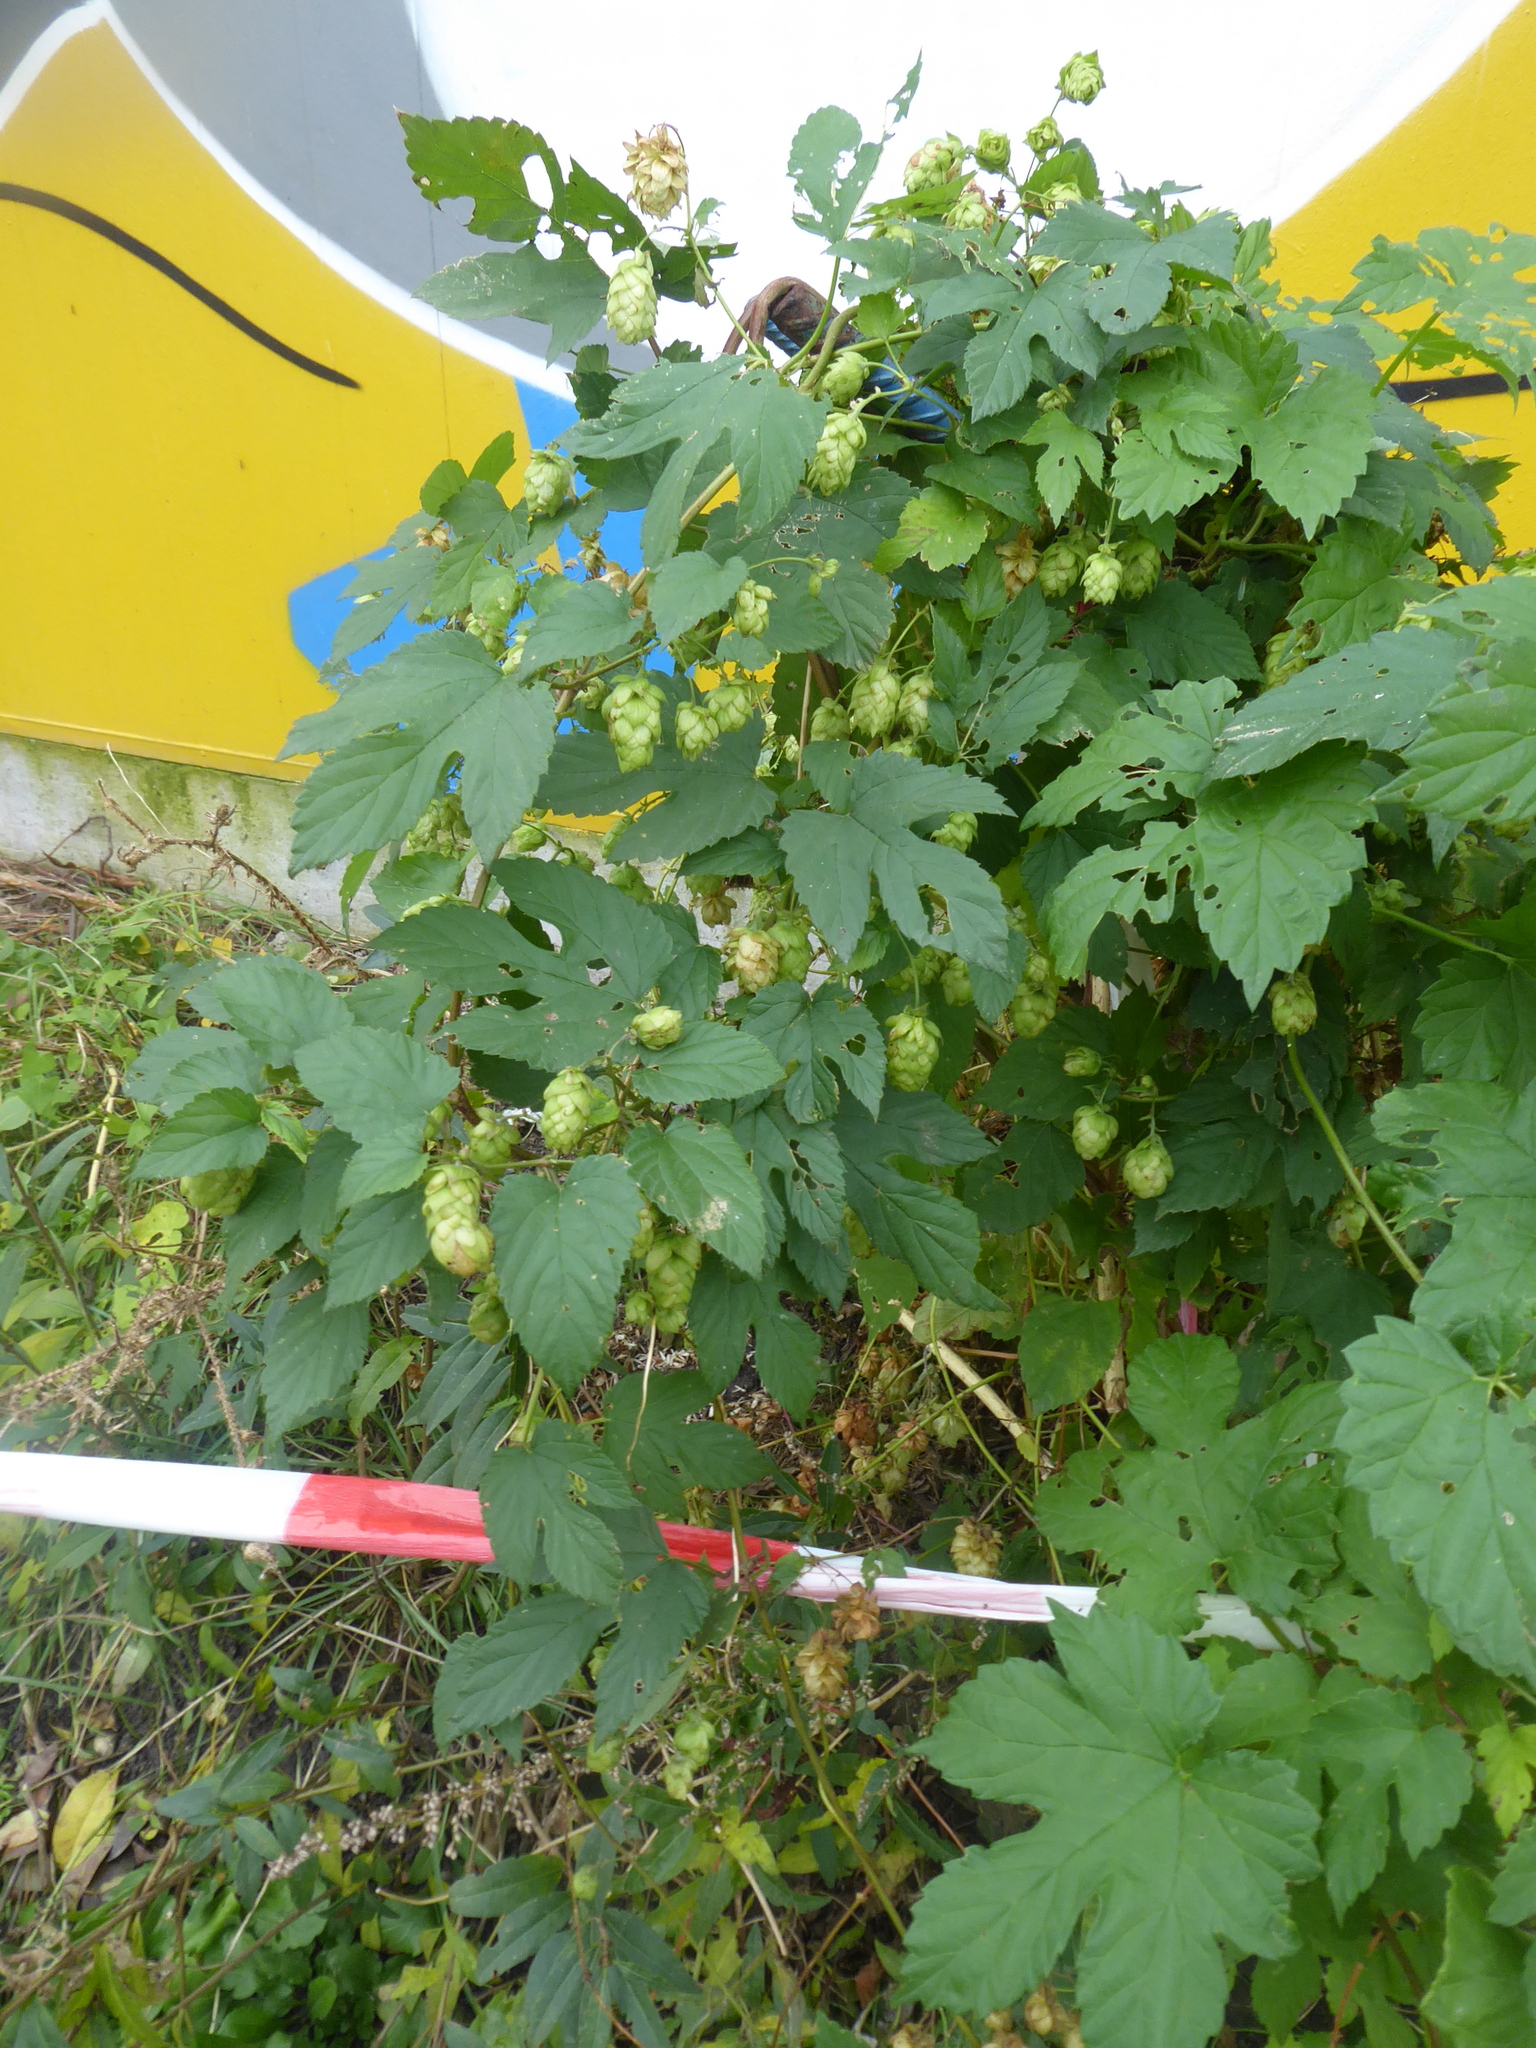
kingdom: Plantae
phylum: Tracheophyta
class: Magnoliopsida
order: Rosales
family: Cannabaceae
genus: Humulus
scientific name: Humulus lupulus
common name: Hop
